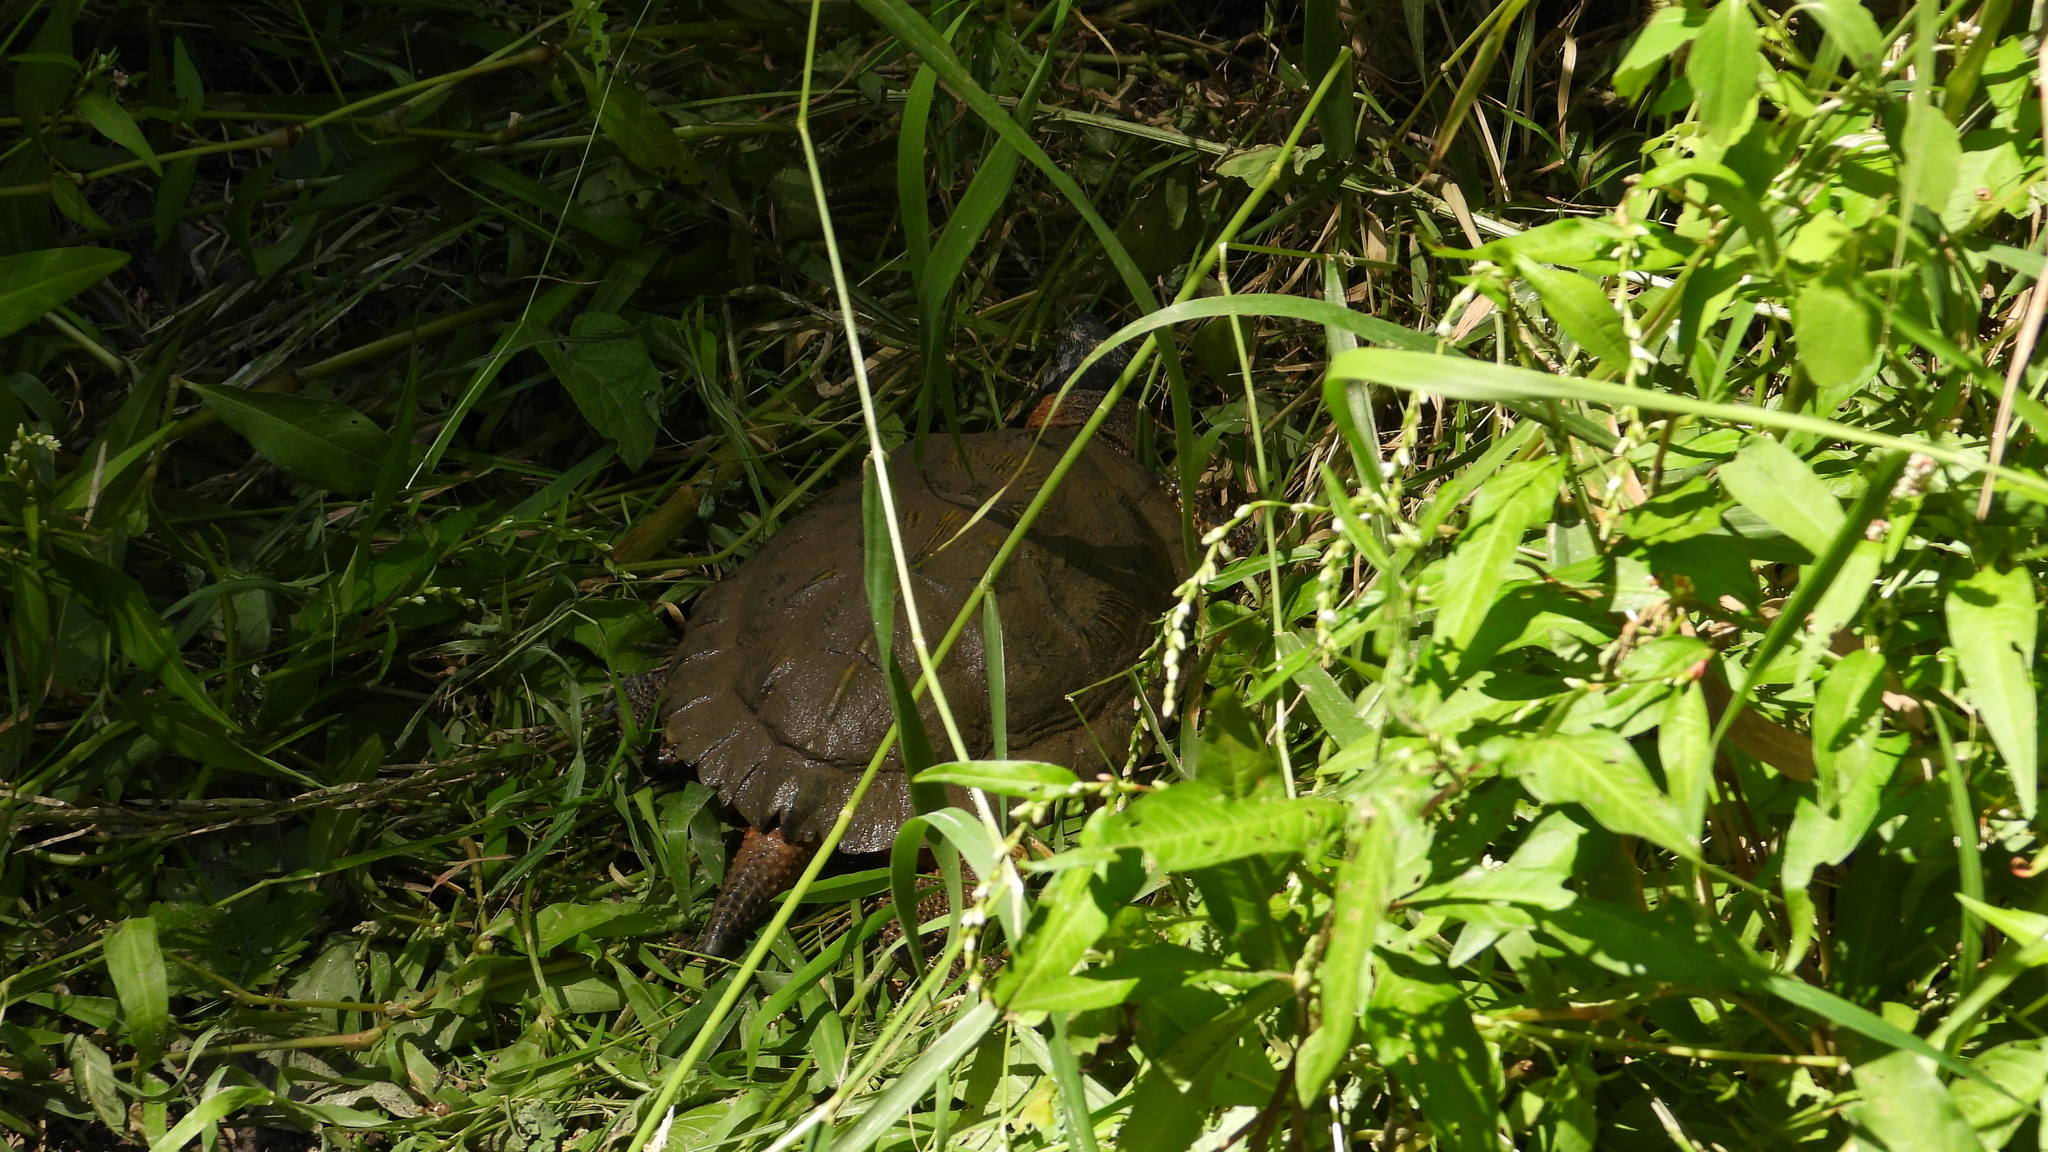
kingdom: Animalia
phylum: Chordata
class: Testudines
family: Emydidae
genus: Glyptemys
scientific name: Glyptemys insculpta
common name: Wood turtle
